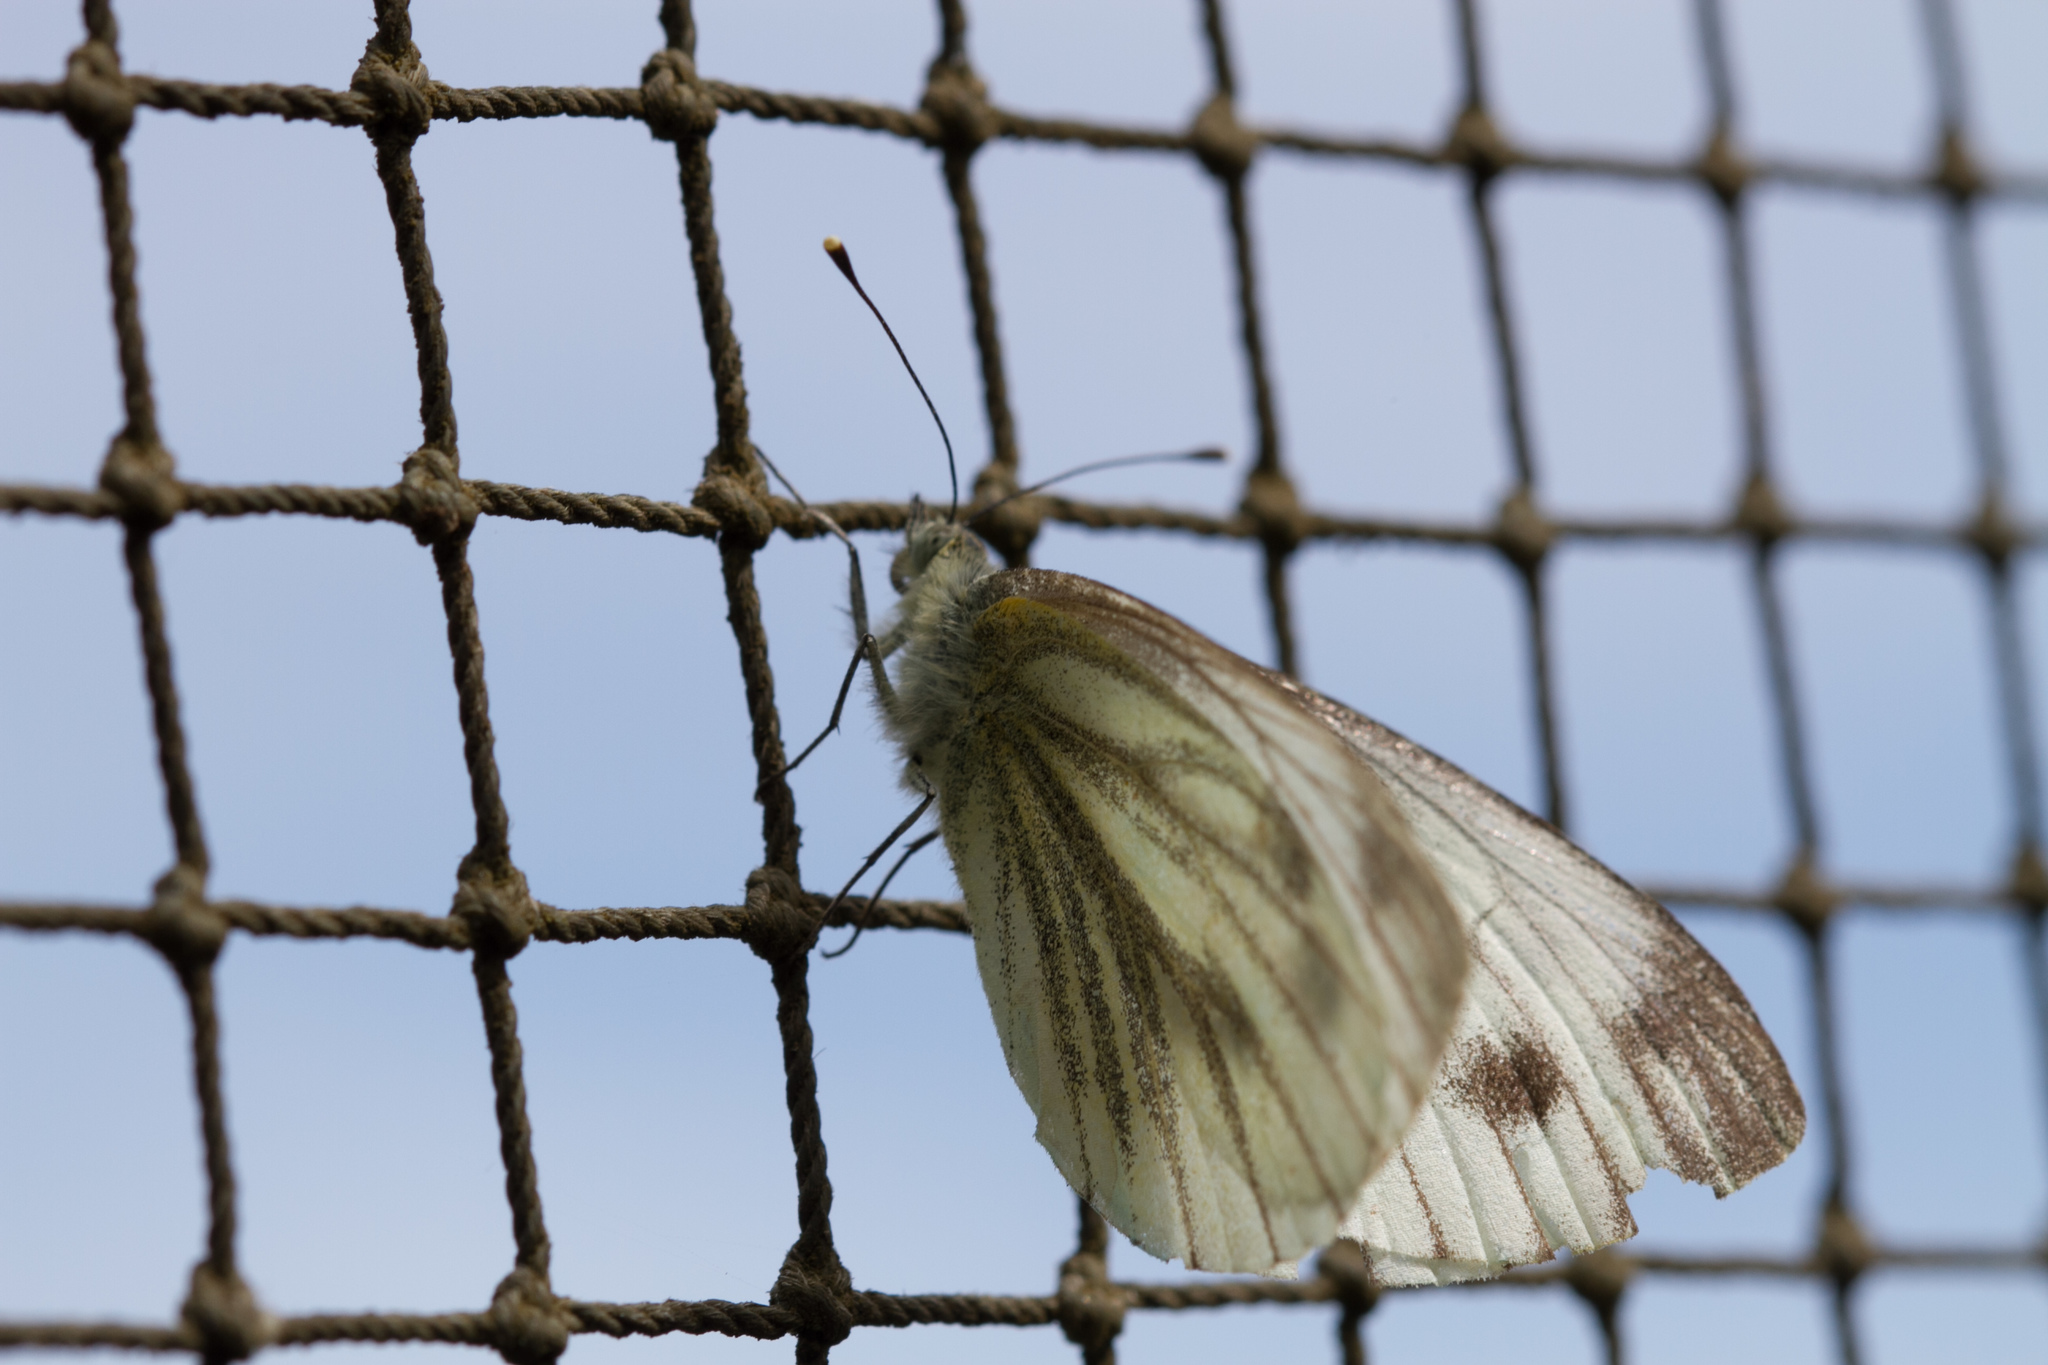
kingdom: Animalia
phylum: Arthropoda
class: Insecta
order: Lepidoptera
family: Pieridae
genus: Pieris
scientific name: Pieris napi
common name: Green-veined white
